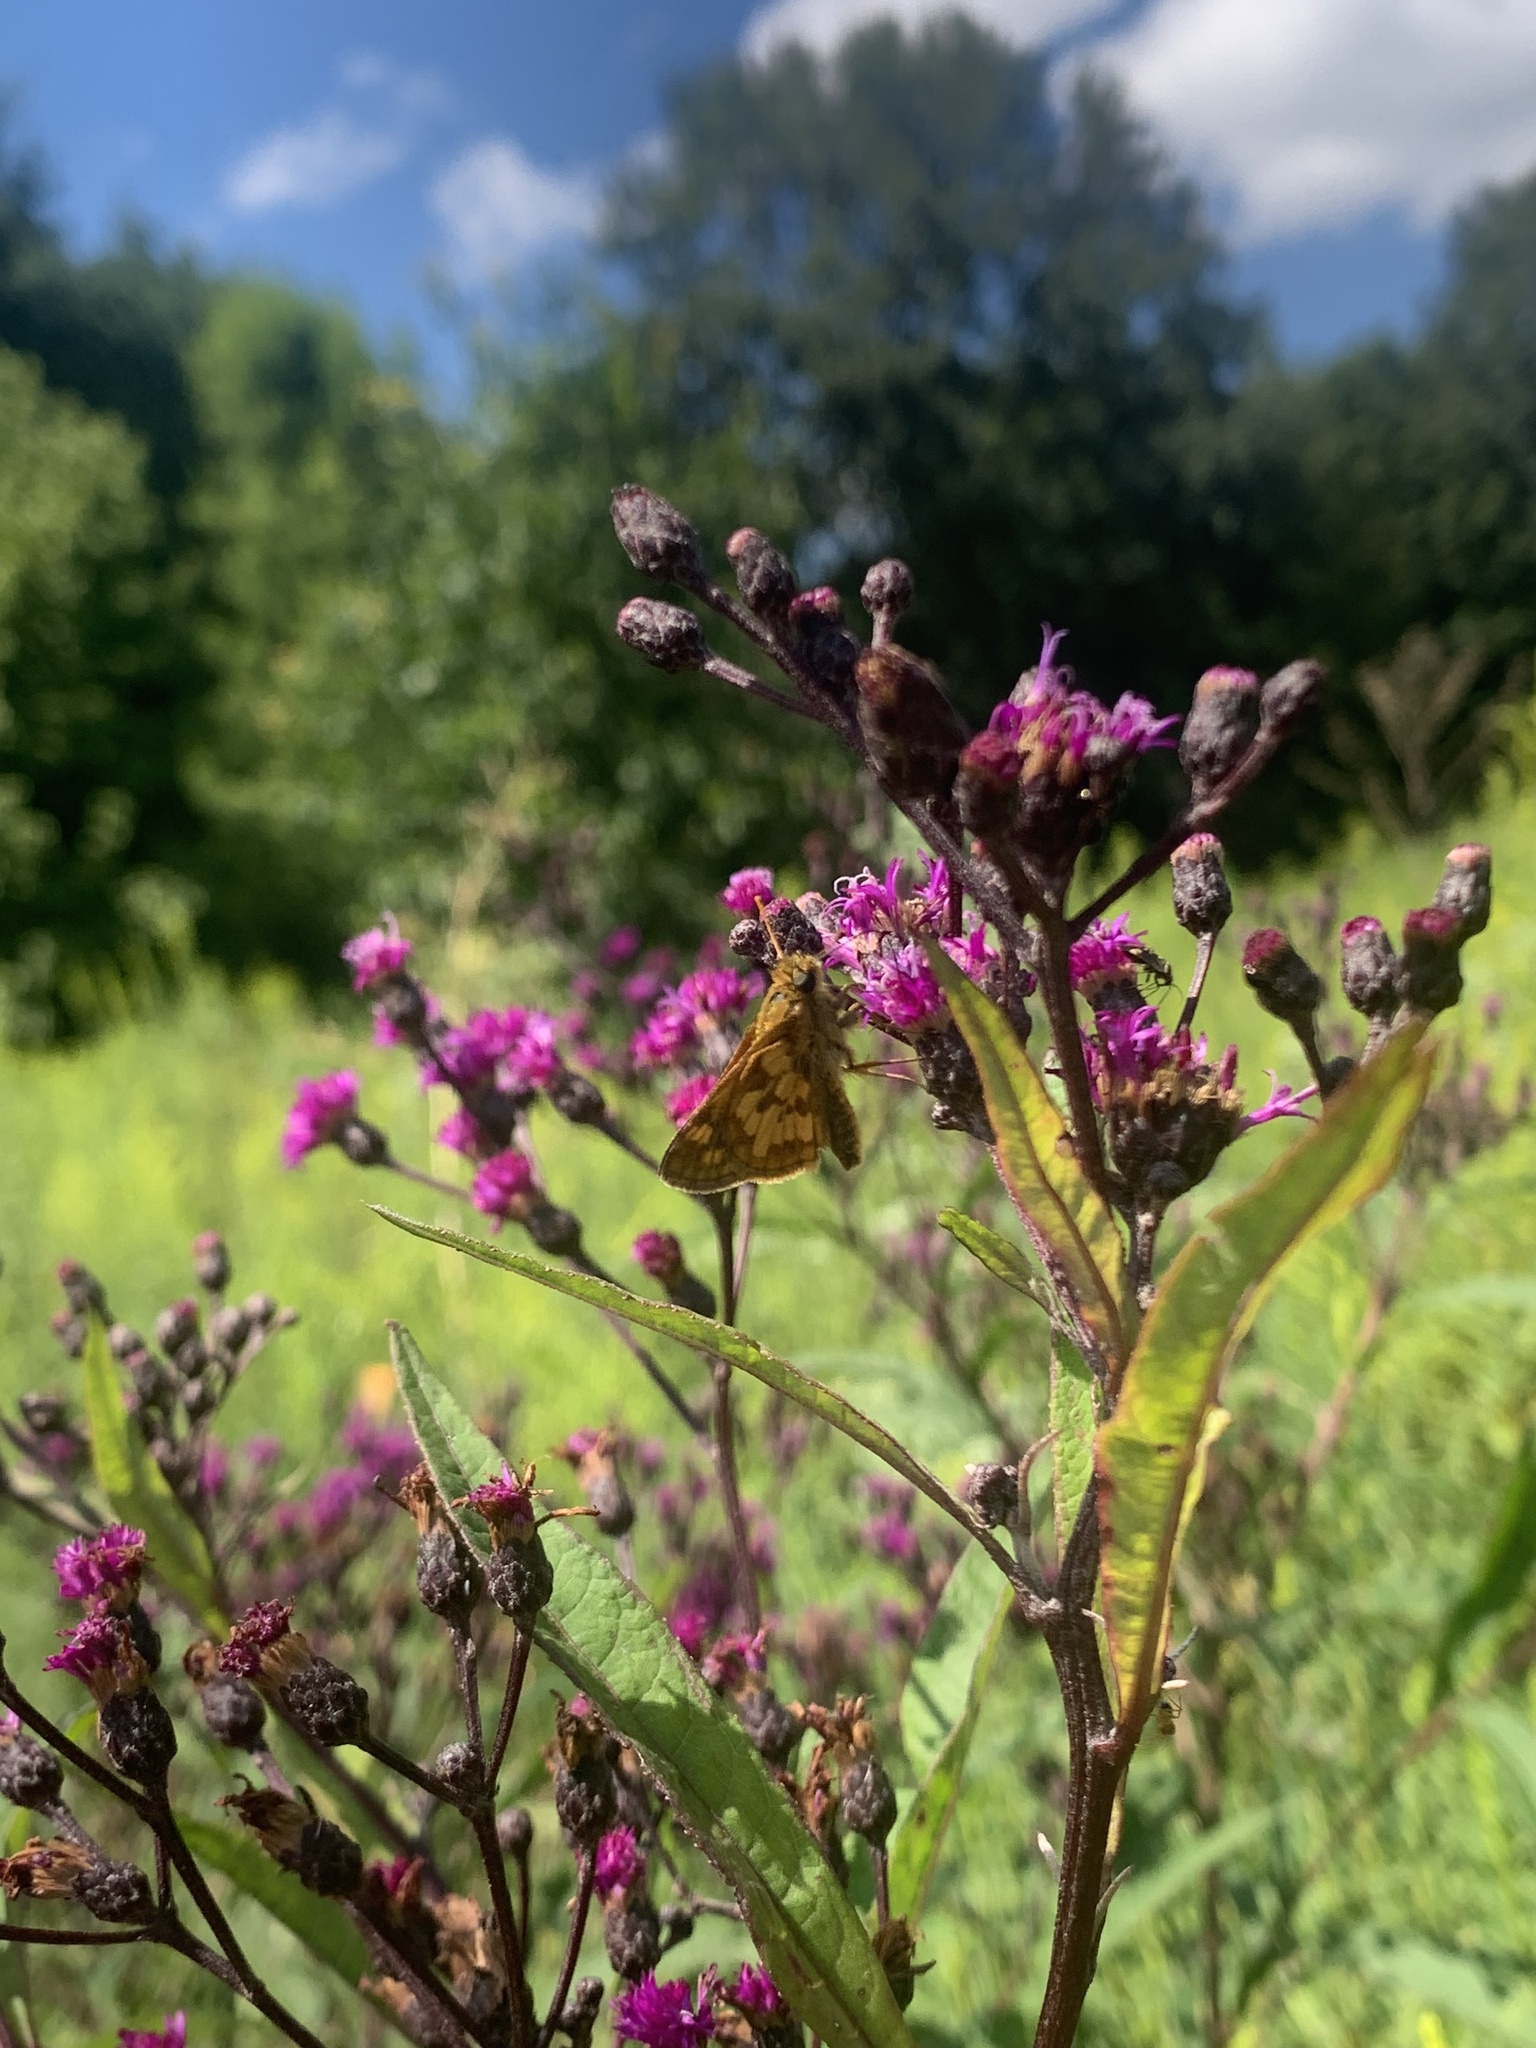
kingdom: Animalia
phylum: Arthropoda
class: Insecta
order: Lepidoptera
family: Hesperiidae
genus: Polites
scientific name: Polites coras
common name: Peck's skipper
